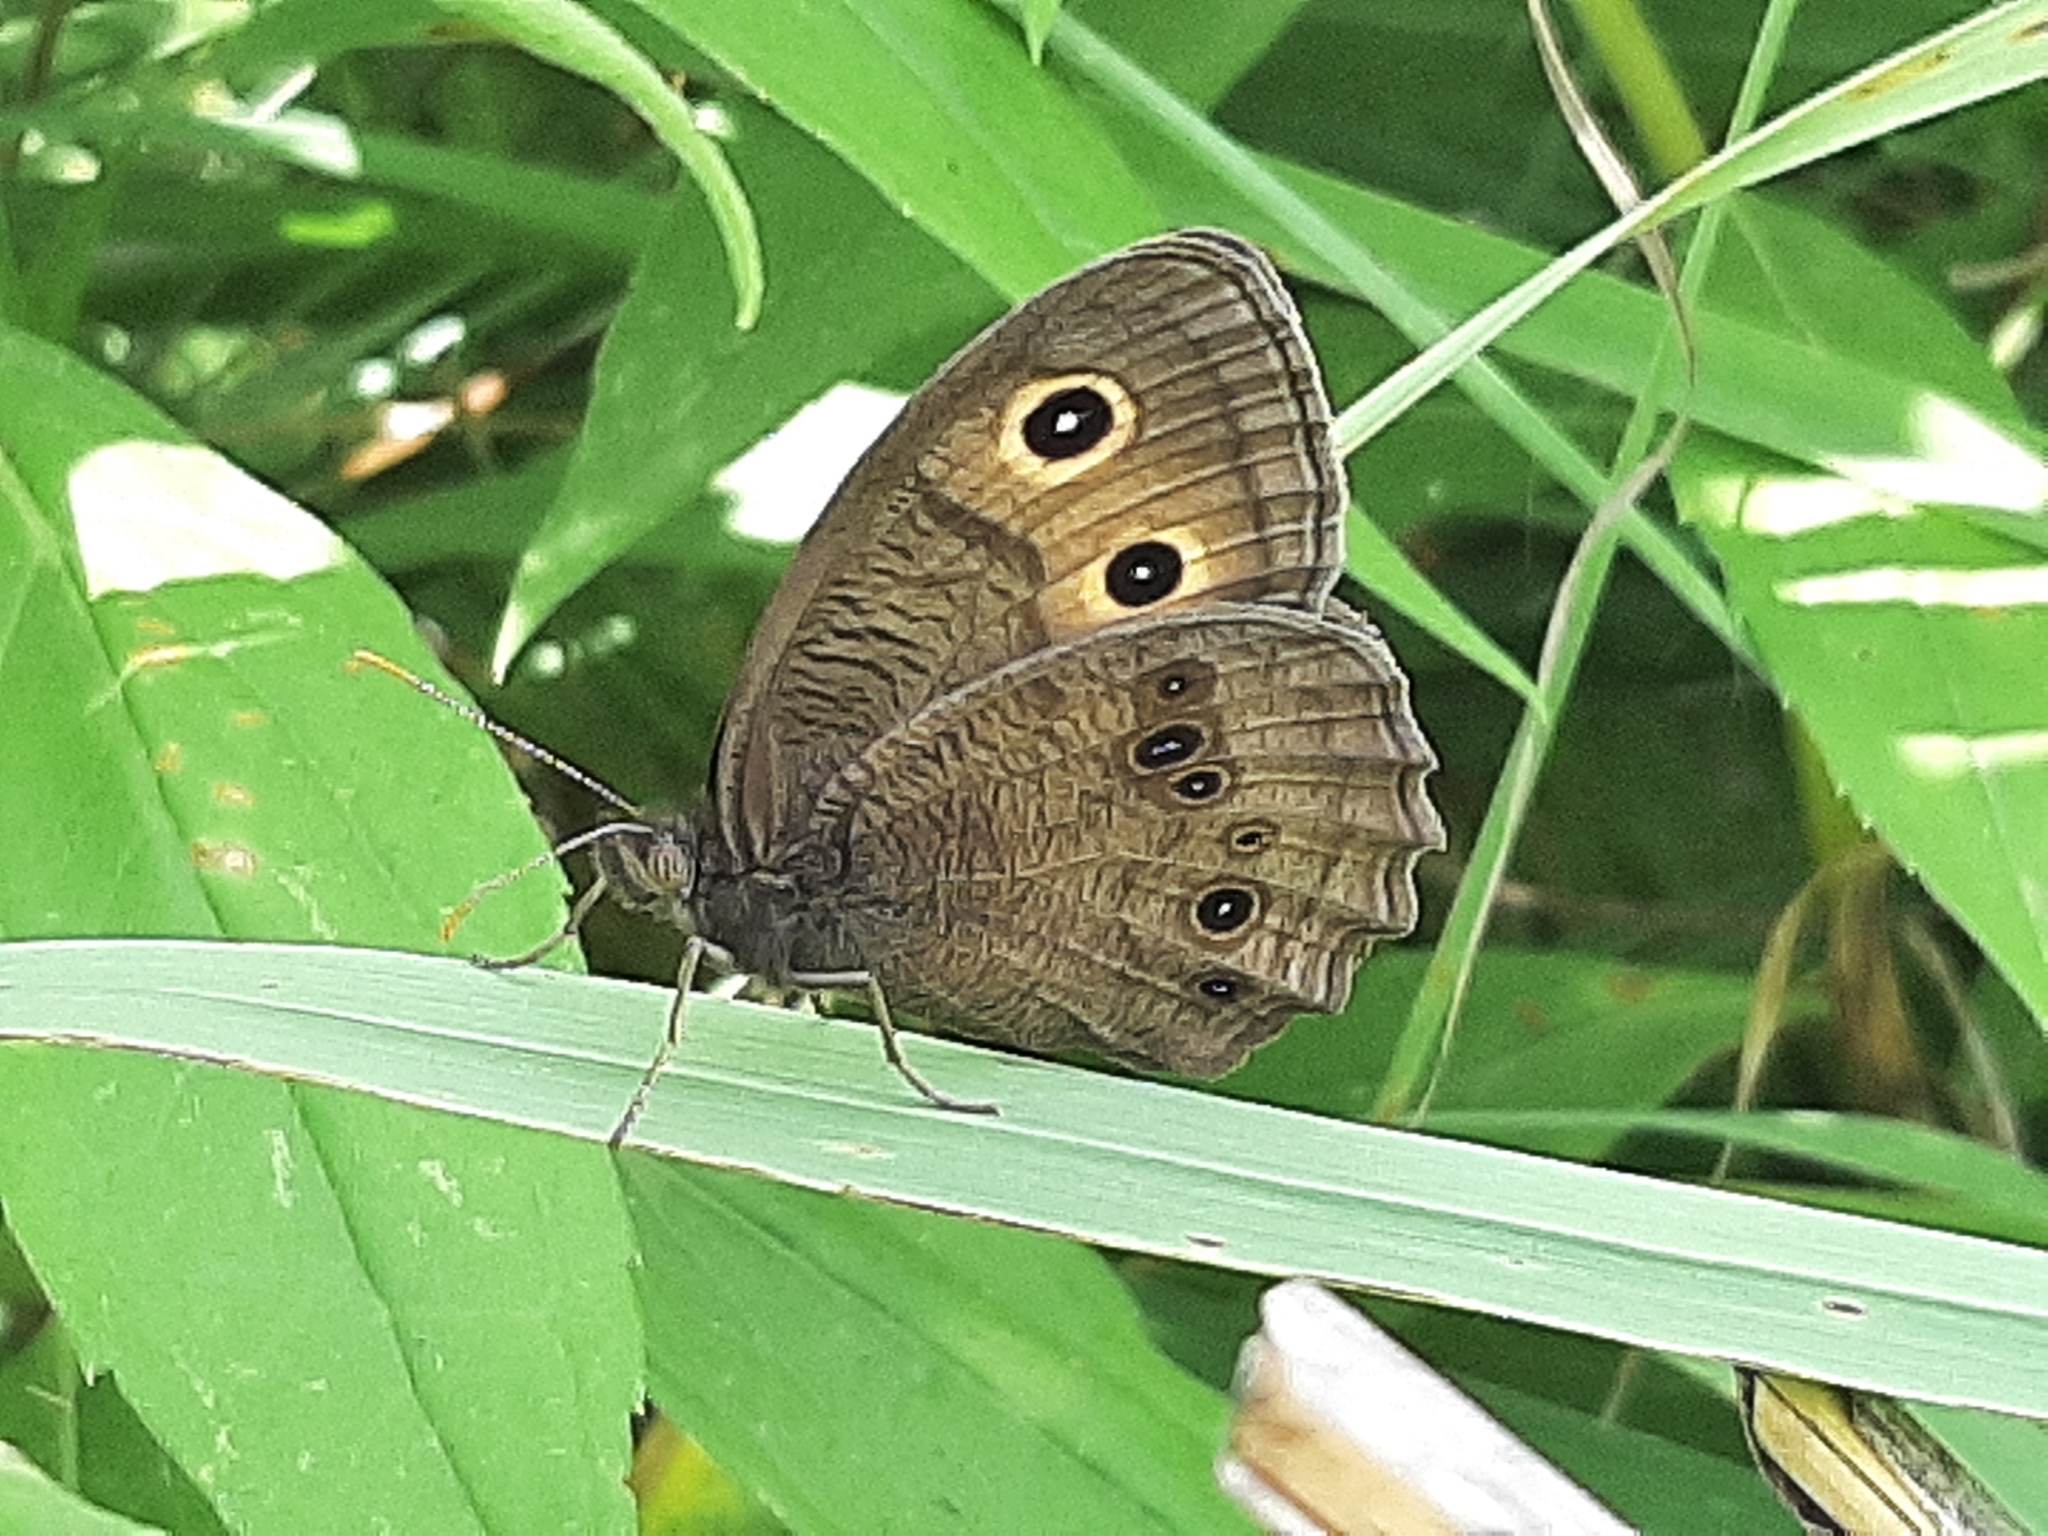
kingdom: Animalia
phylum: Arthropoda
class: Insecta
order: Lepidoptera
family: Nymphalidae
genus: Cercyonis
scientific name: Cercyonis pegala
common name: Common wood-nymph
